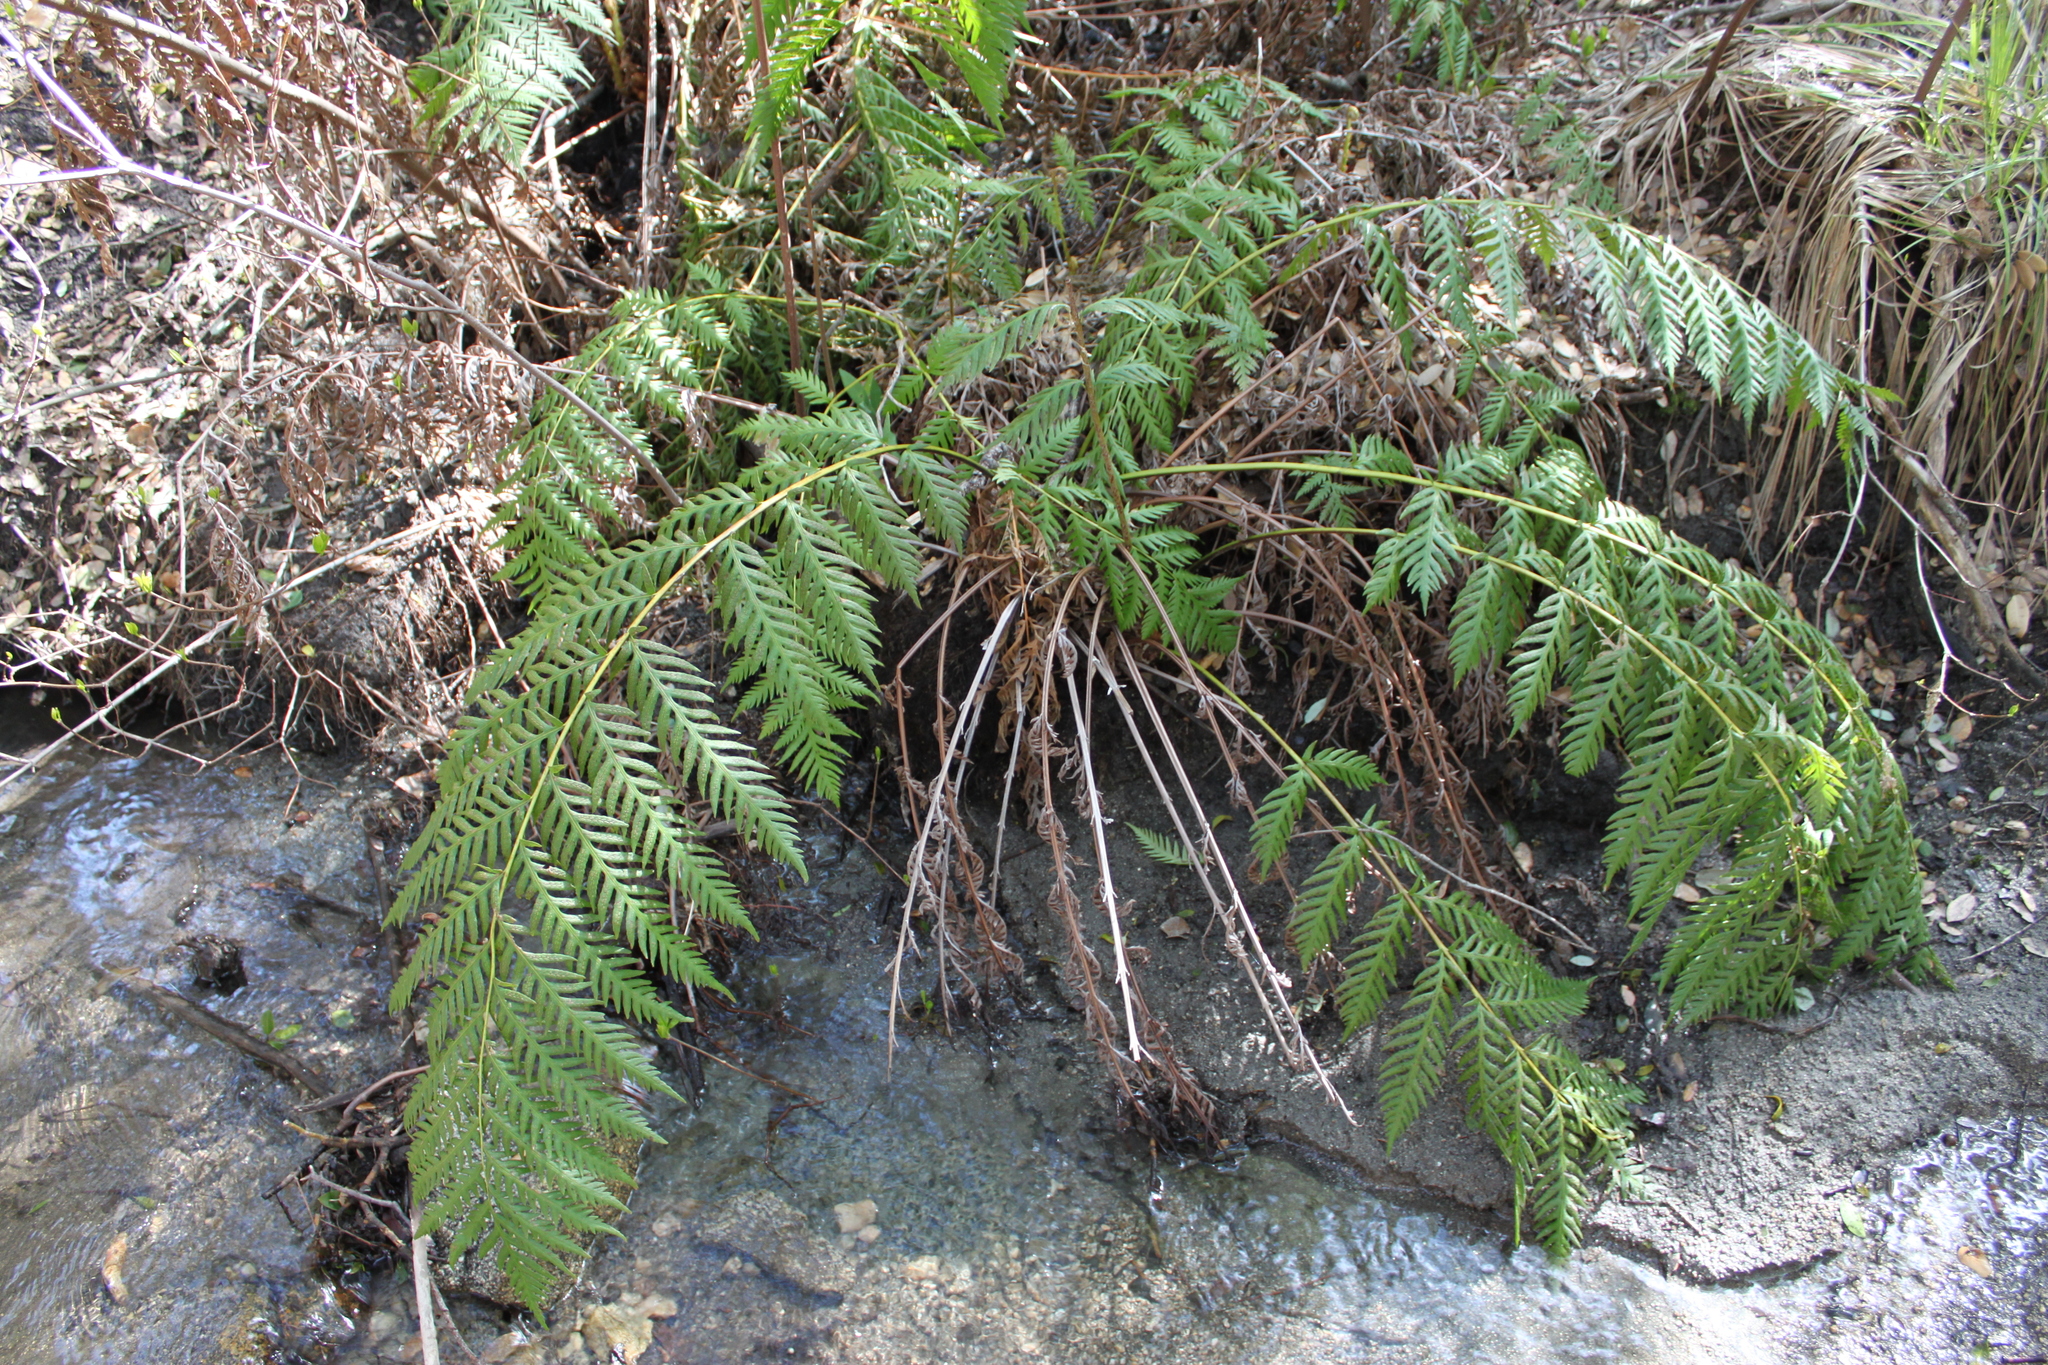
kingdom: Plantae
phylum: Tracheophyta
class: Polypodiopsida
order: Polypodiales
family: Blechnaceae
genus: Woodwardia
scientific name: Woodwardia fimbriata
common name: Giant chain fern
